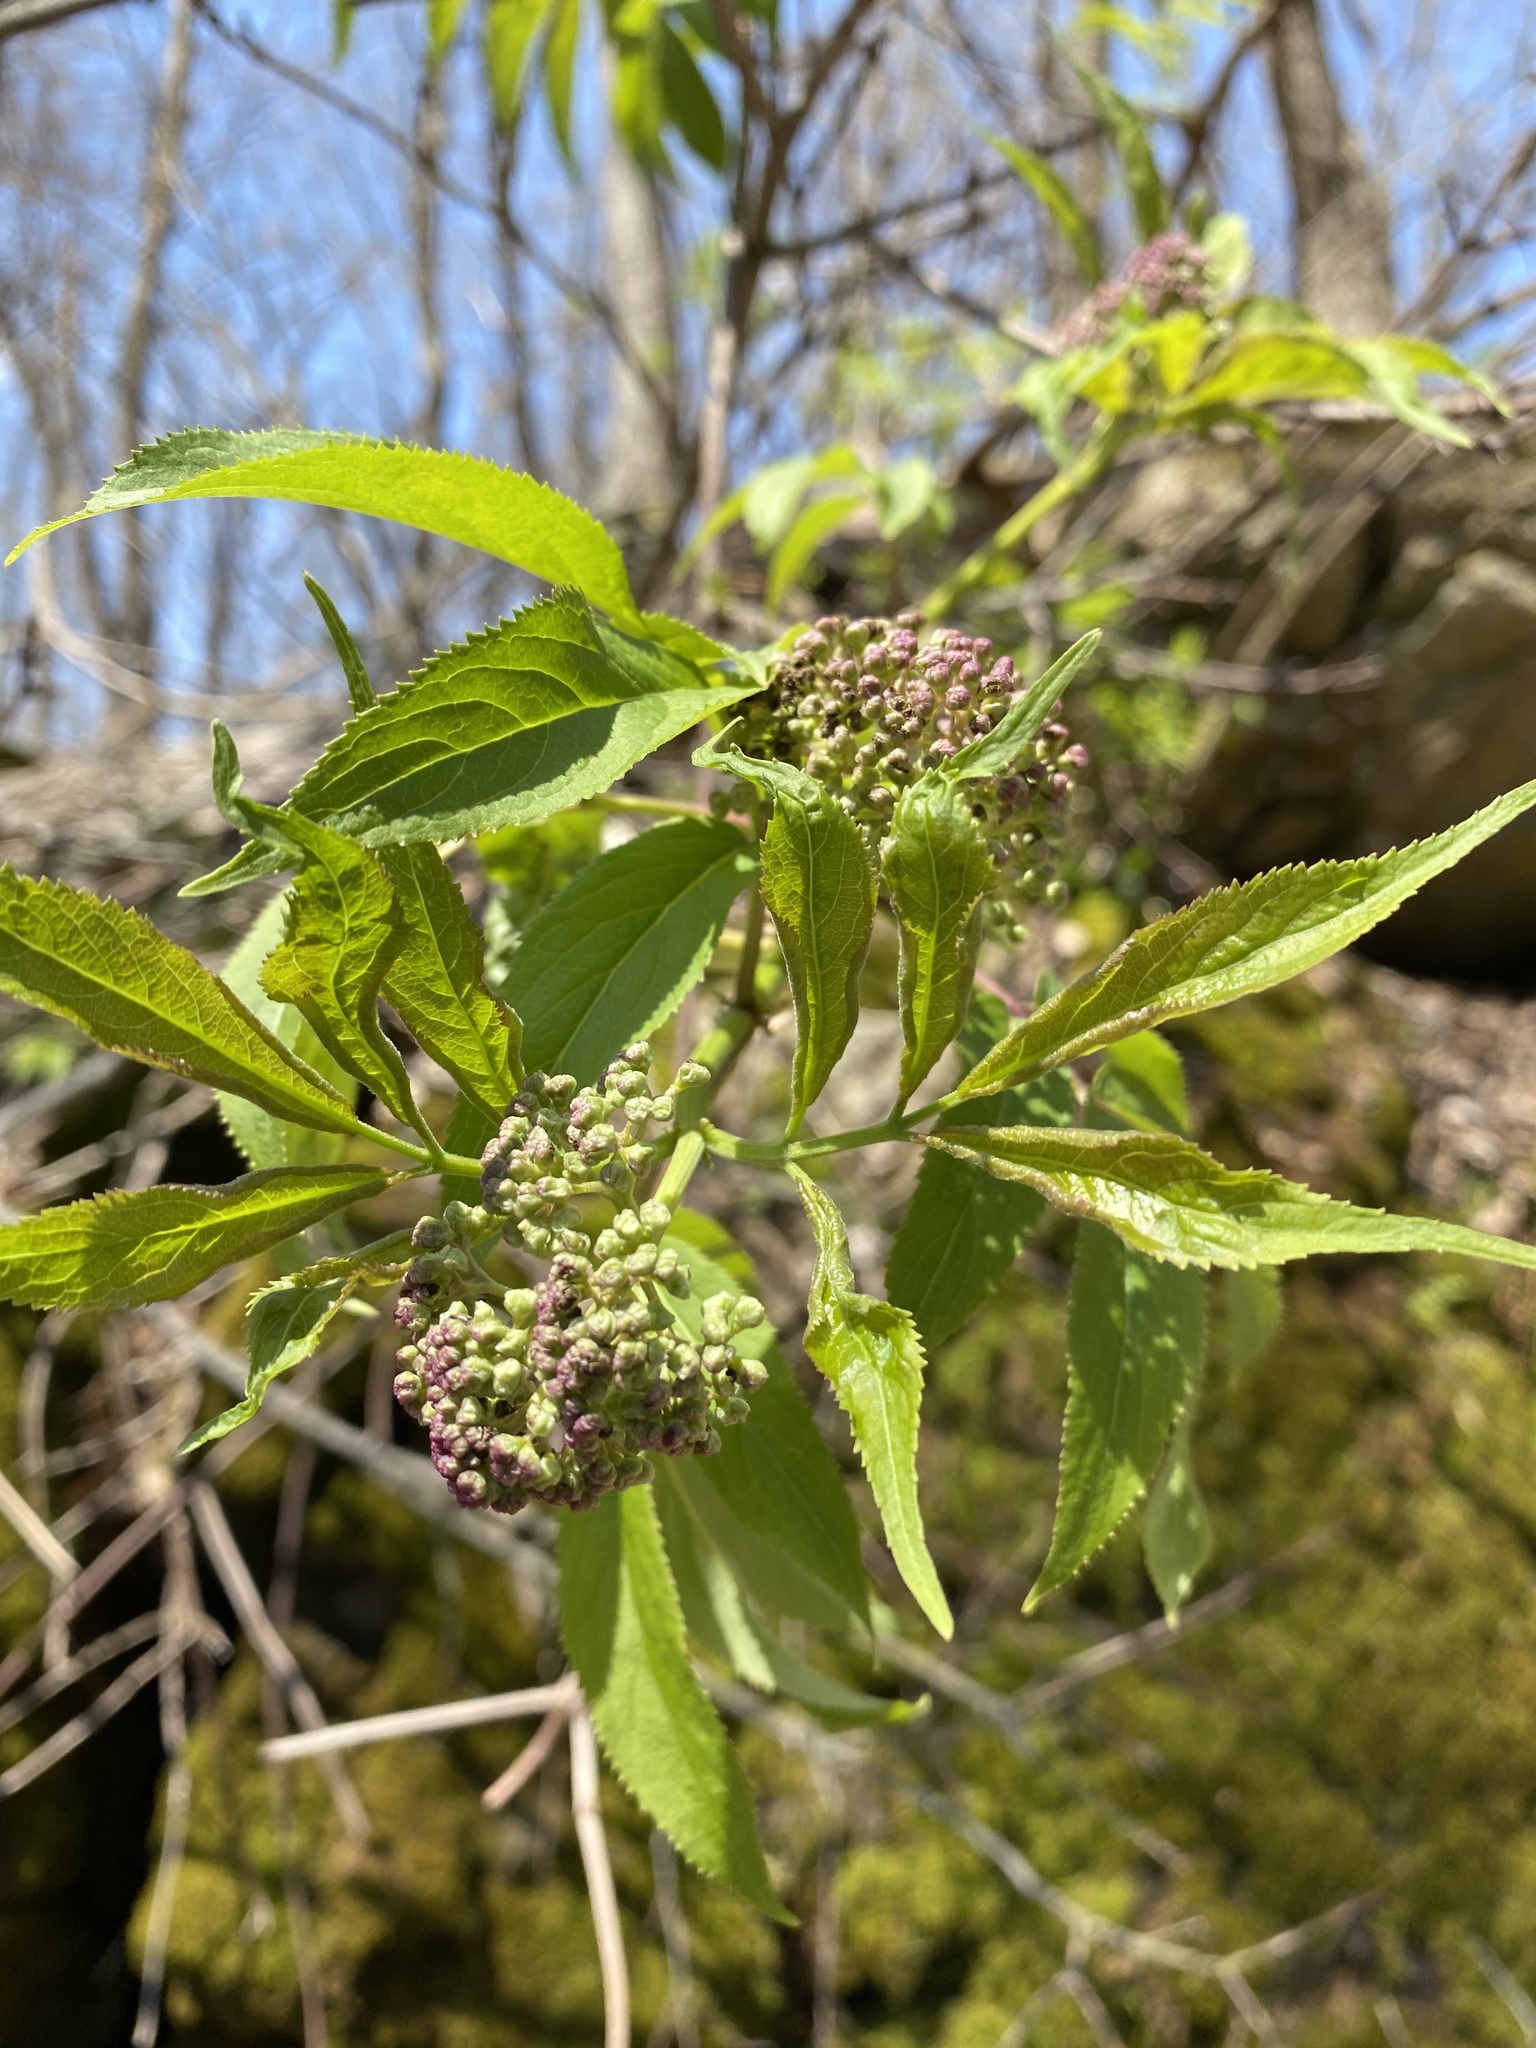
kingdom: Plantae
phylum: Tracheophyta
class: Magnoliopsida
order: Dipsacales
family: Viburnaceae
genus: Sambucus
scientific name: Sambucus racemosa
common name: Red-berried elder
